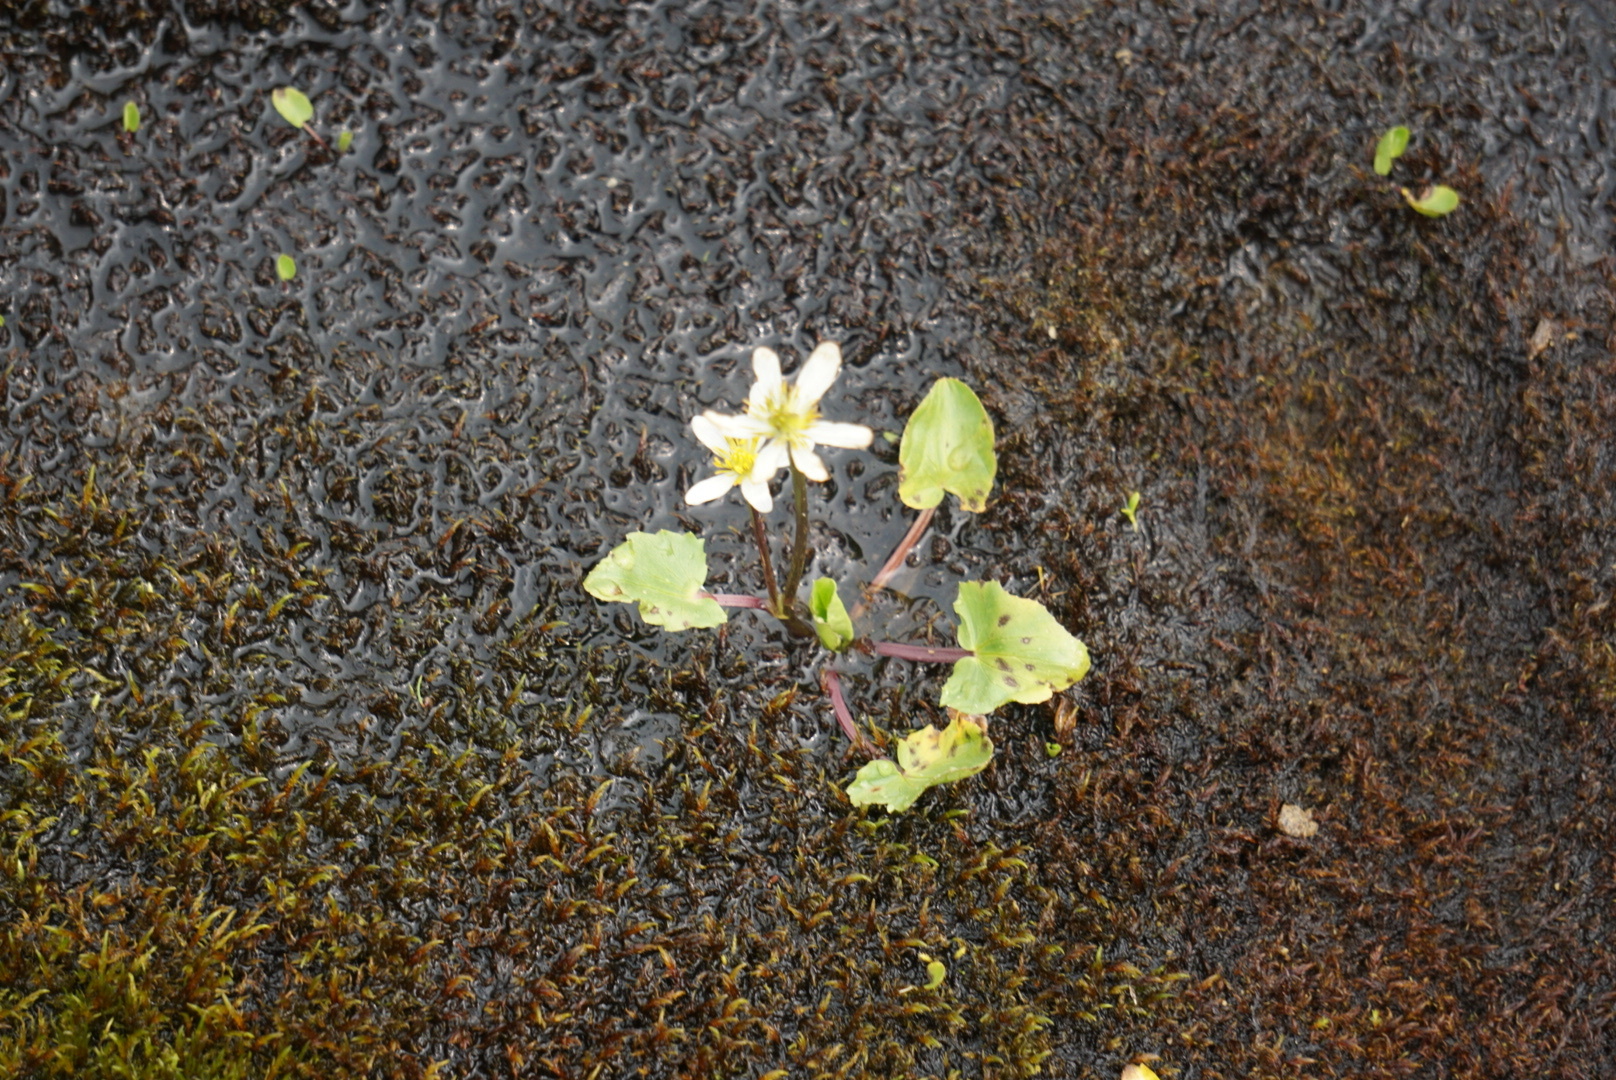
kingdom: Plantae
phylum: Tracheophyta
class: Magnoliopsida
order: Ranunculales
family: Ranunculaceae
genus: Caltha
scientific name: Caltha leptosepala
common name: Elkslip
